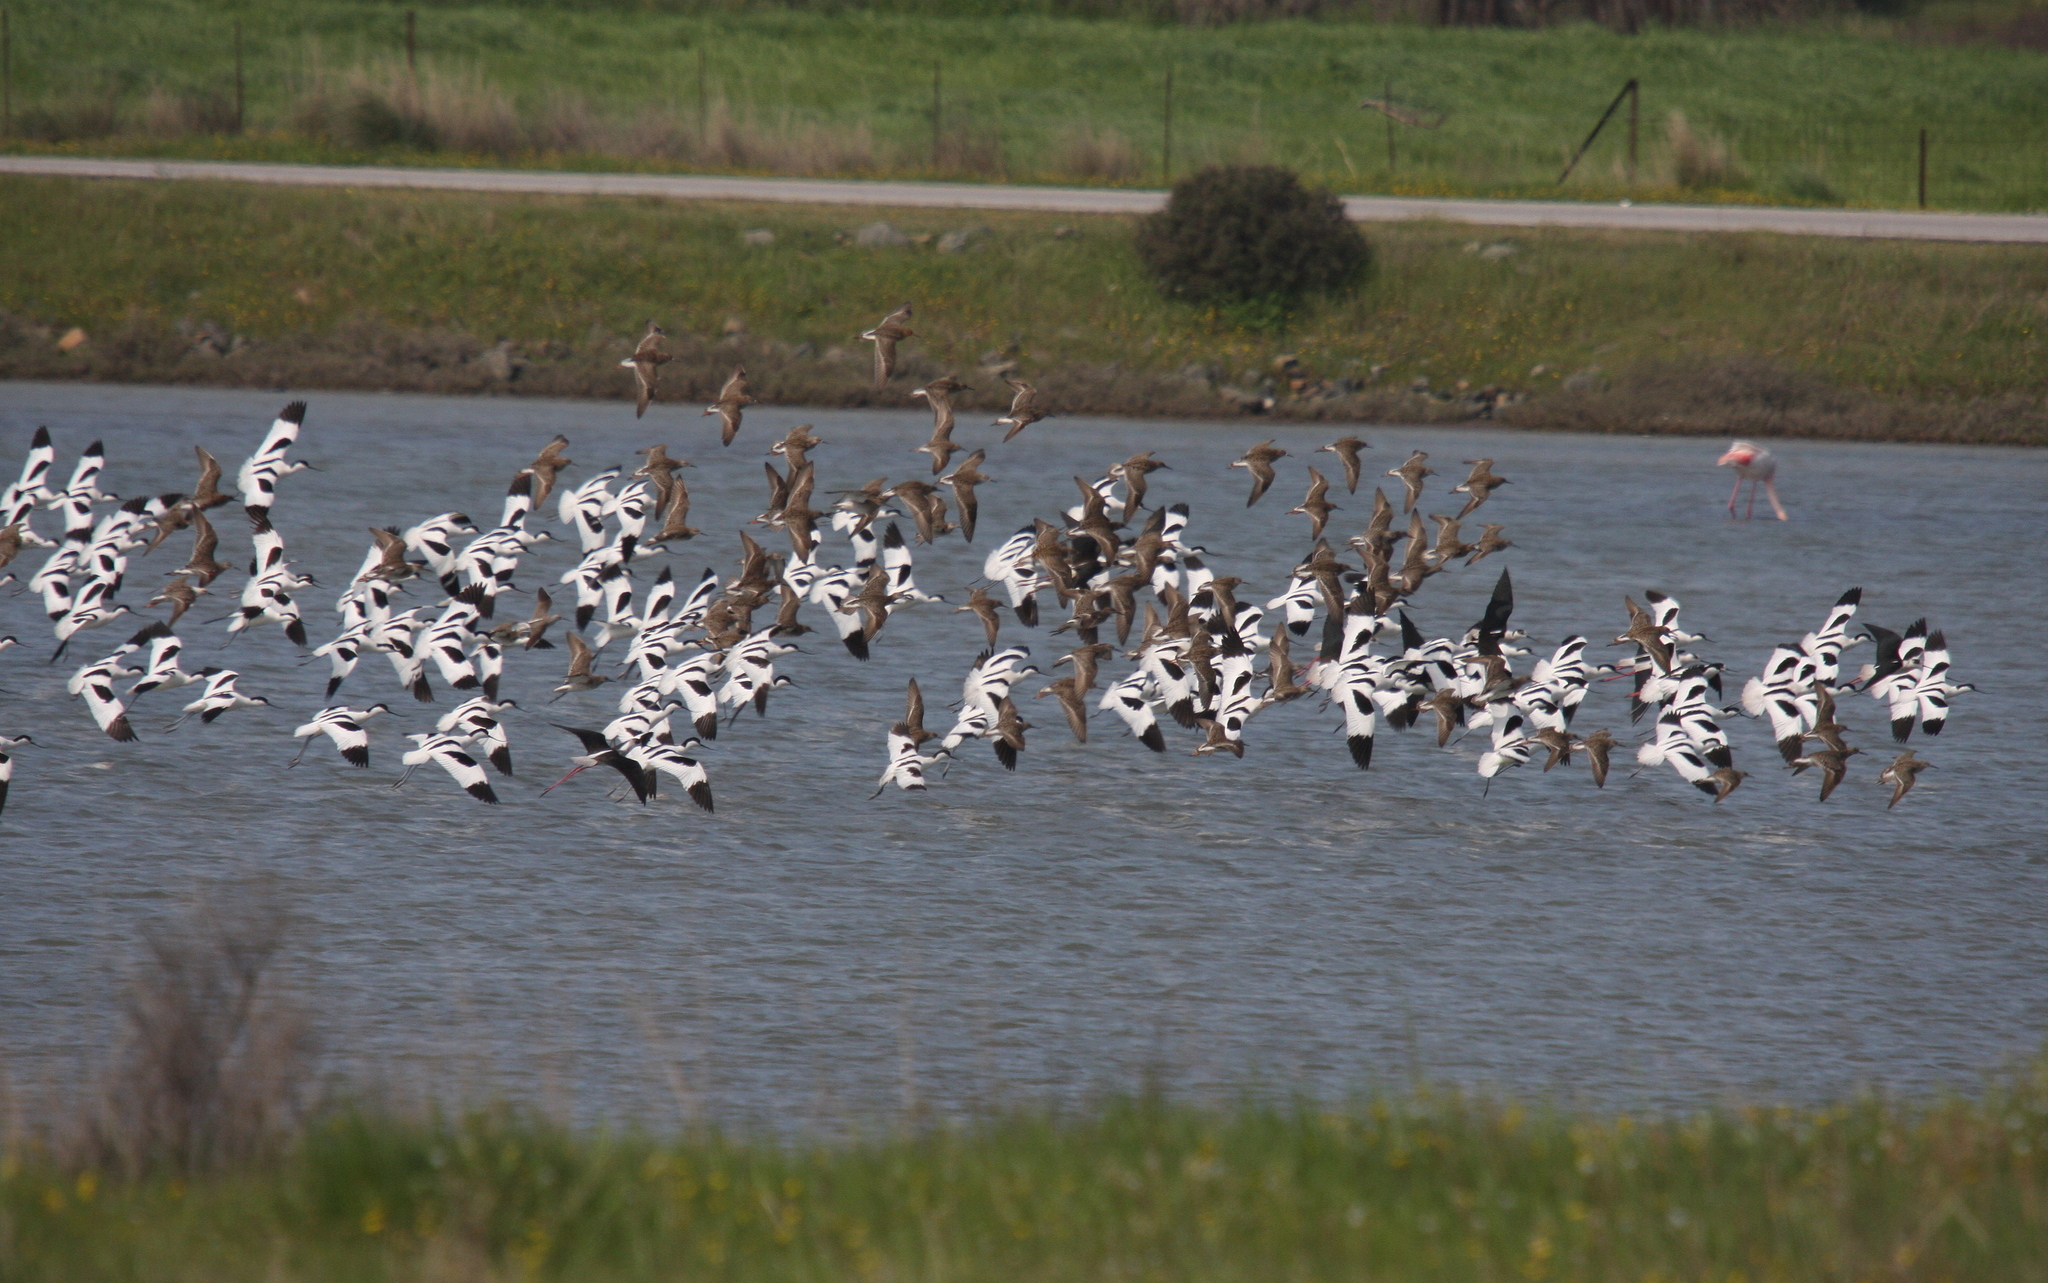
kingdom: Animalia
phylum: Chordata
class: Aves
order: Charadriiformes
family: Recurvirostridae
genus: Recurvirostra
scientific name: Recurvirostra avosetta
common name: Pied avocet
